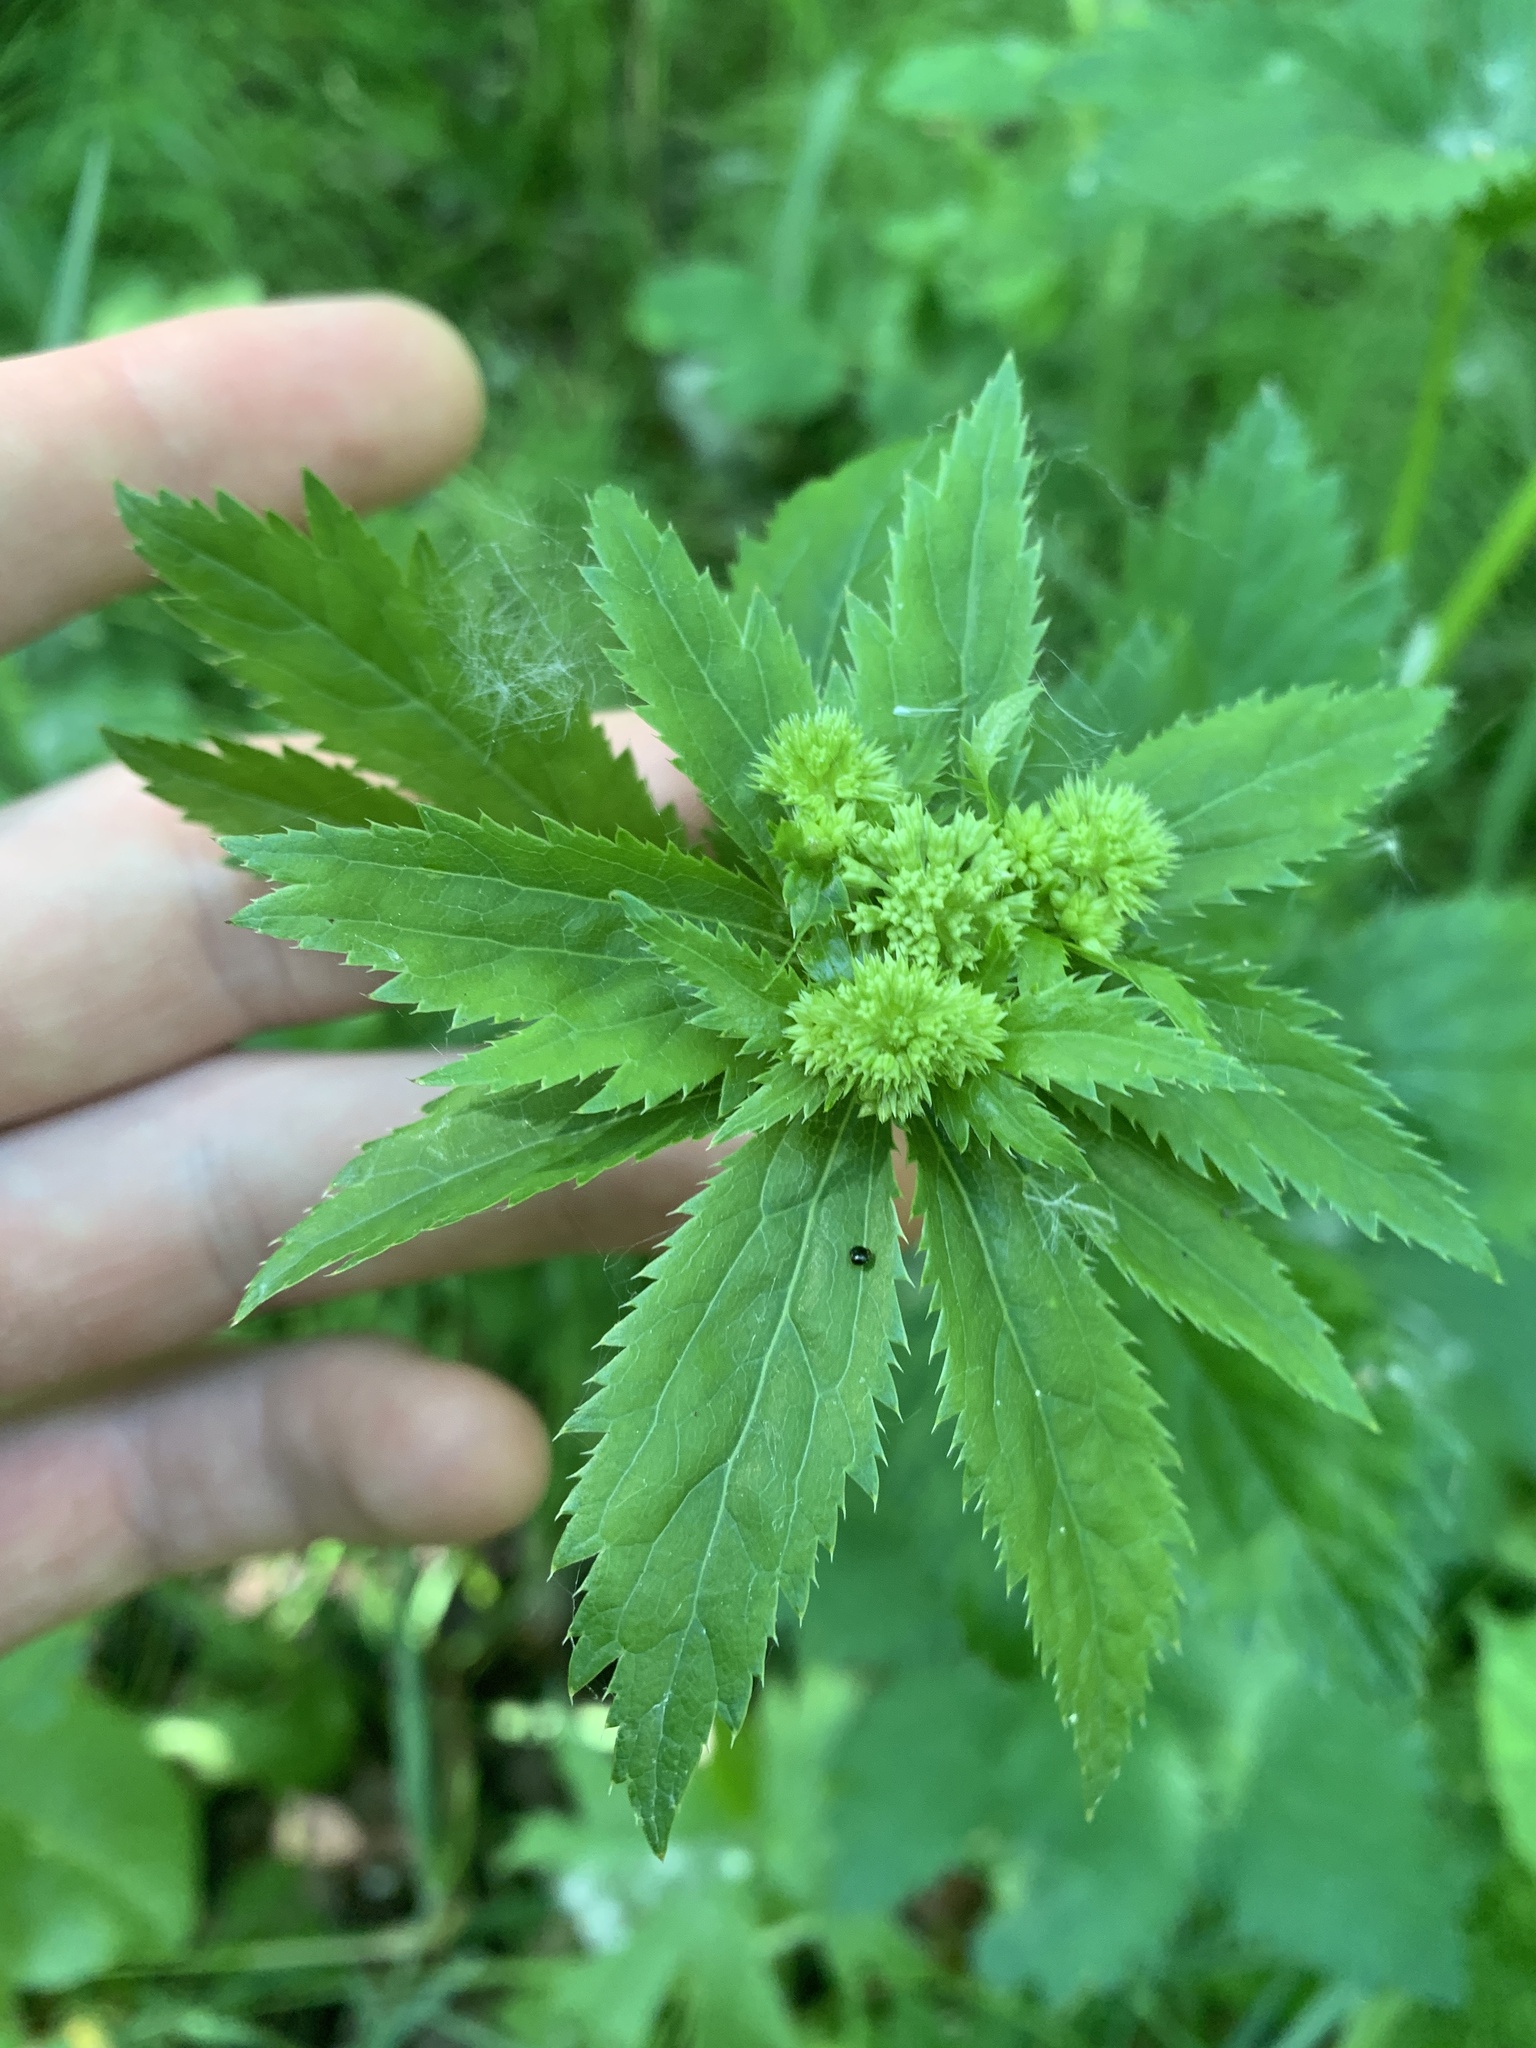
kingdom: Plantae
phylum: Tracheophyta
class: Magnoliopsida
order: Apiales
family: Apiaceae
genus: Sanicula
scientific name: Sanicula marilandica
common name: Black snakeroot
